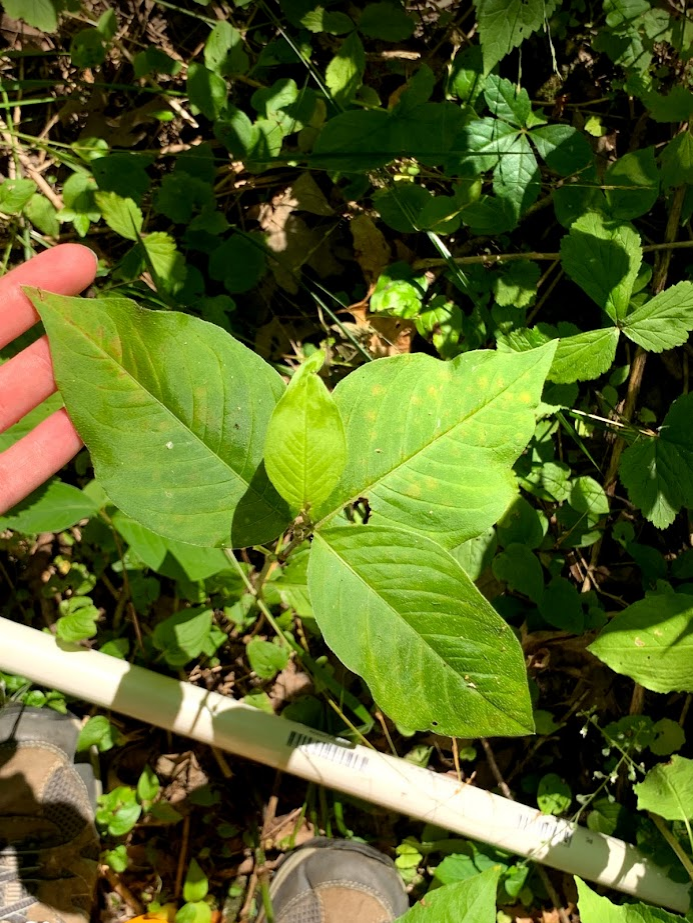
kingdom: Plantae
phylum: Tracheophyta
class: Magnoliopsida
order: Caryophyllales
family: Polygonaceae
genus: Persicaria
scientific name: Persicaria virginiana
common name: Jumpseed
